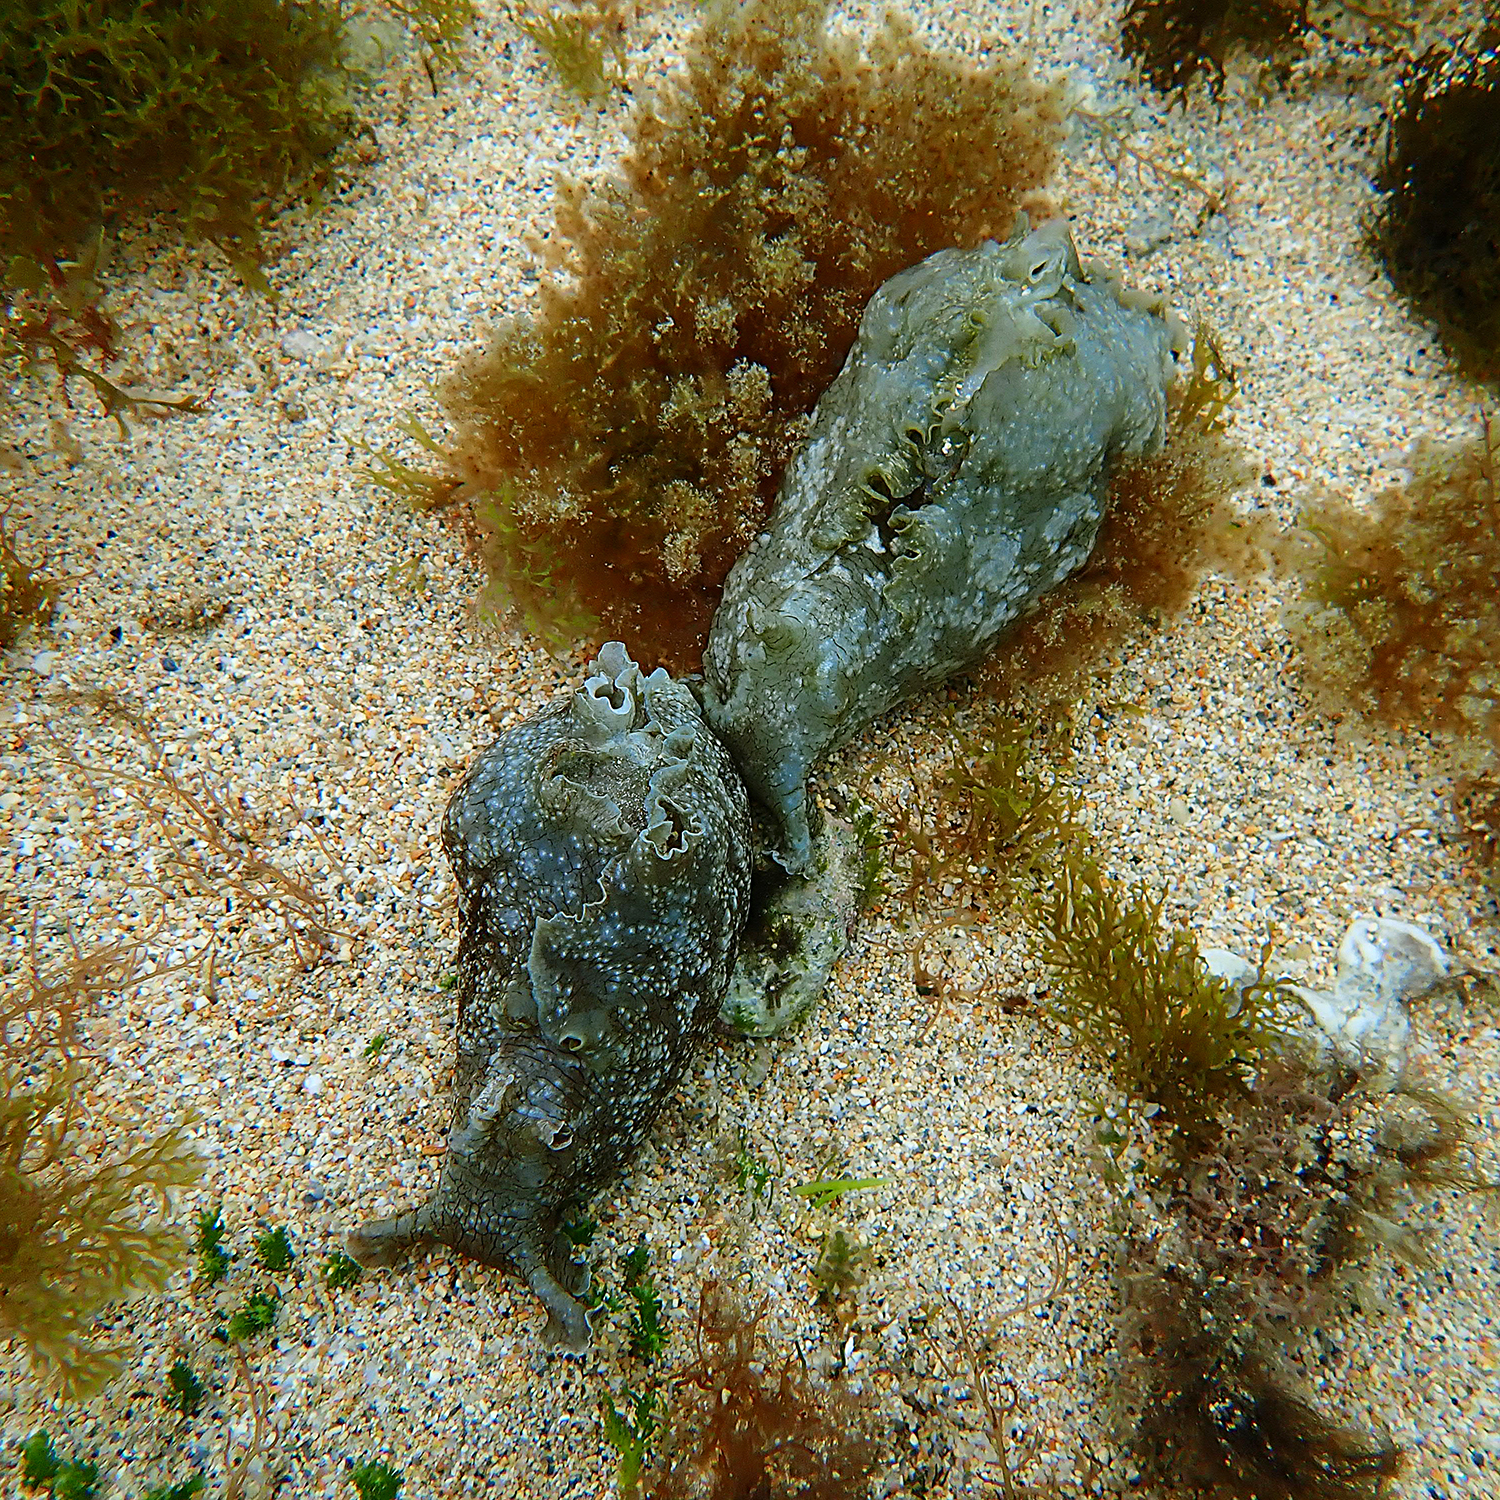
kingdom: Animalia
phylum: Mollusca
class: Gastropoda
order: Aplysiida
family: Aplysiidae
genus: Aplysia
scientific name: Aplysia sydneyensis
